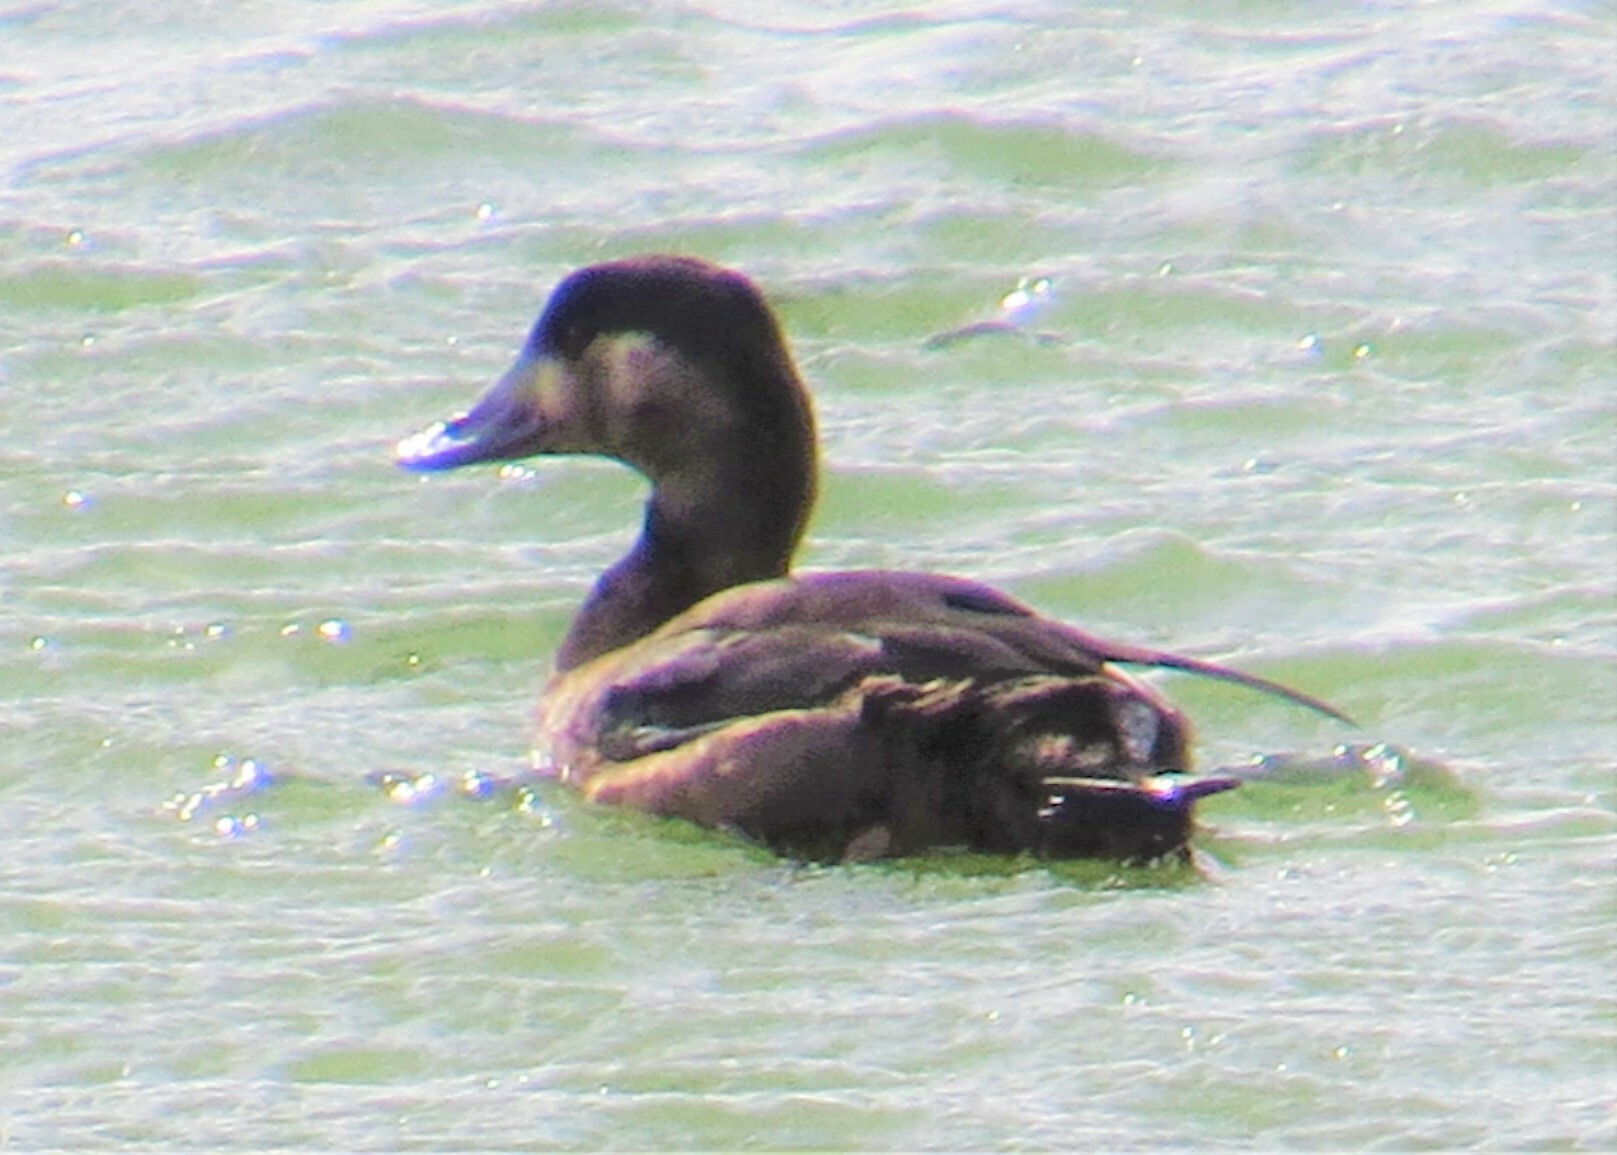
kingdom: Animalia
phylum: Chordata
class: Aves
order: Anseriformes
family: Anatidae
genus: Melanitta
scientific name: Melanitta perspicillata
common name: Surf scoter
